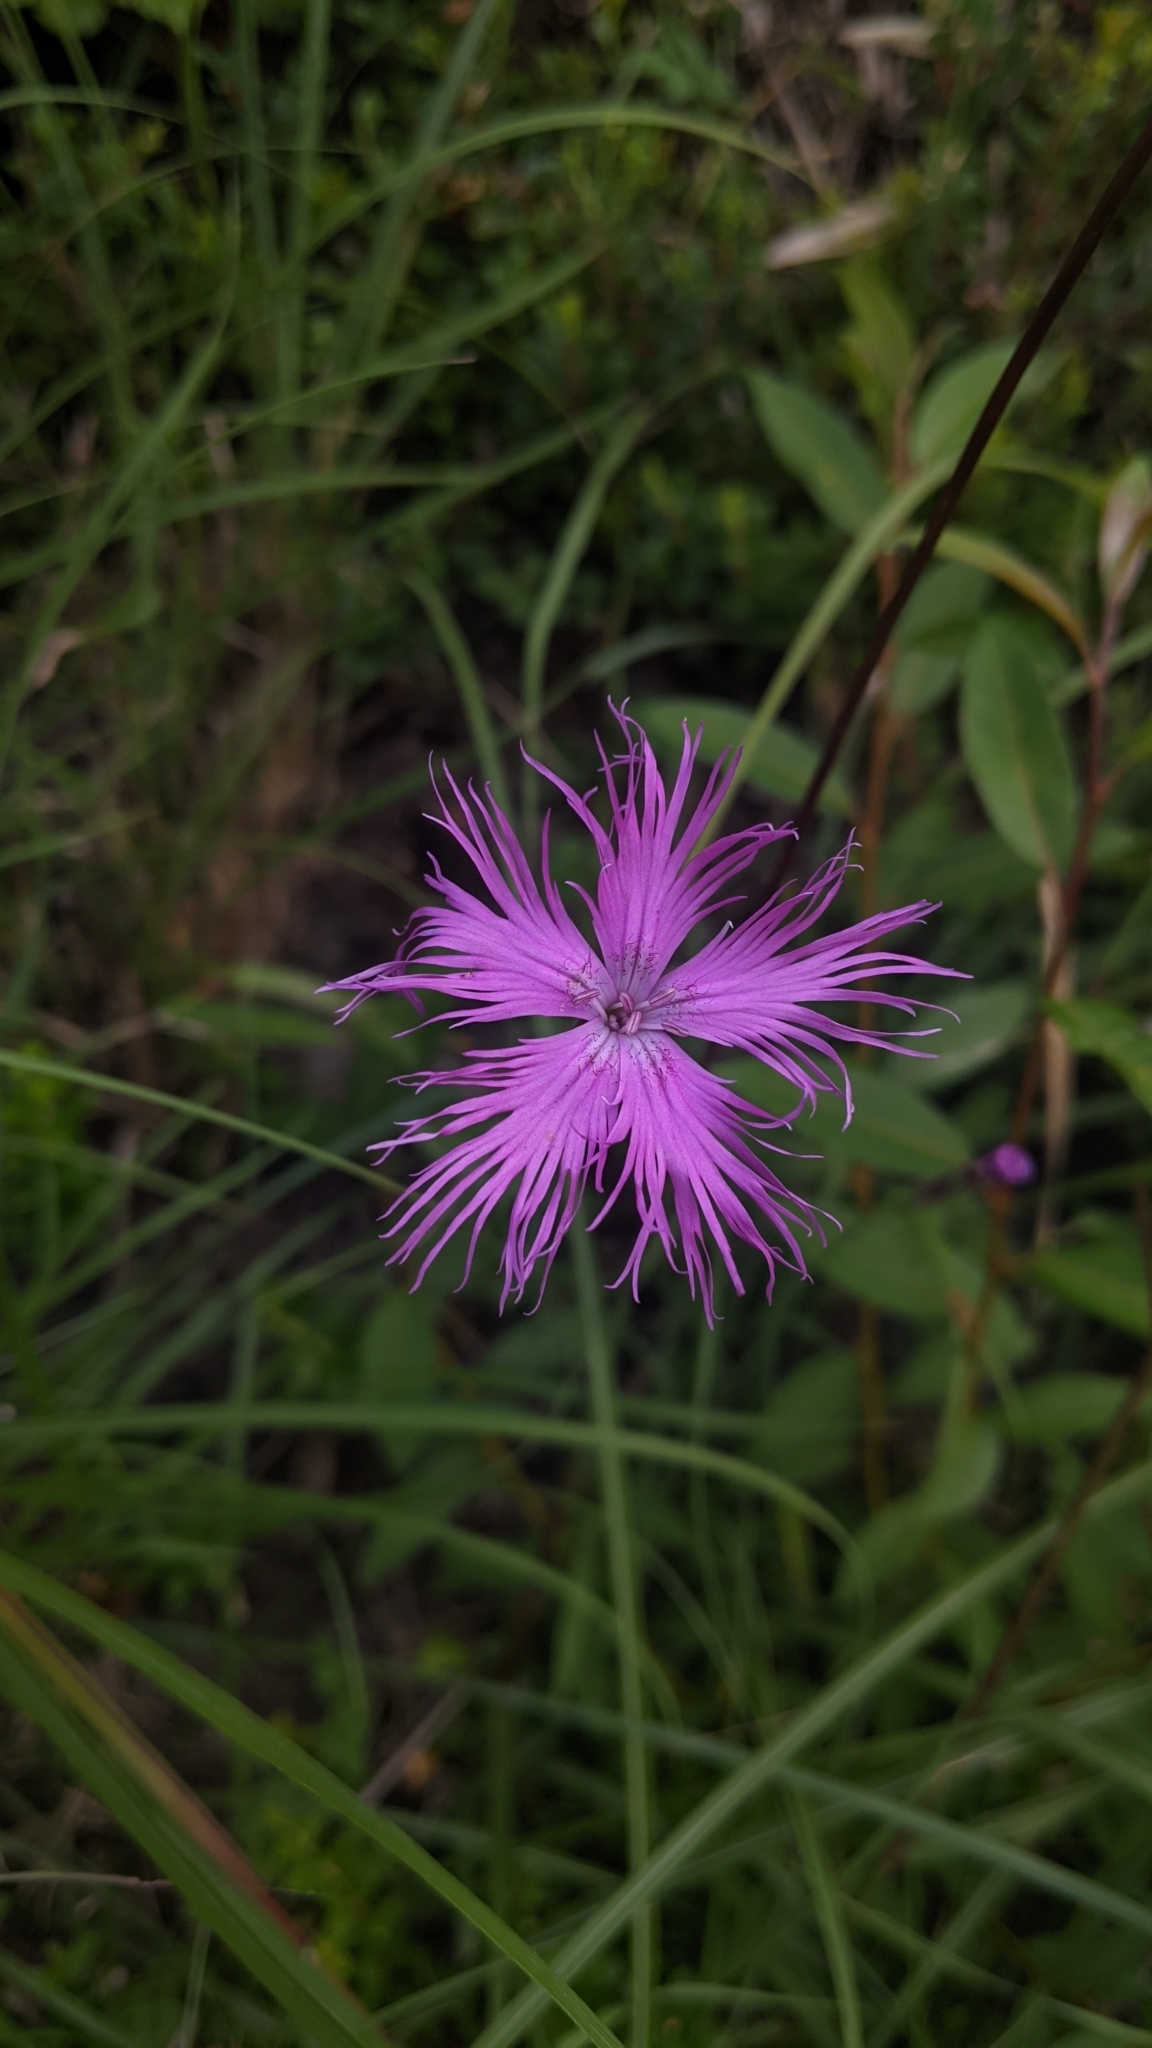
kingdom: Plantae
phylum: Tracheophyta
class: Magnoliopsida
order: Caryophyllales
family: Caryophyllaceae
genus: Dianthus
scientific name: Dianthus pygmaeus
